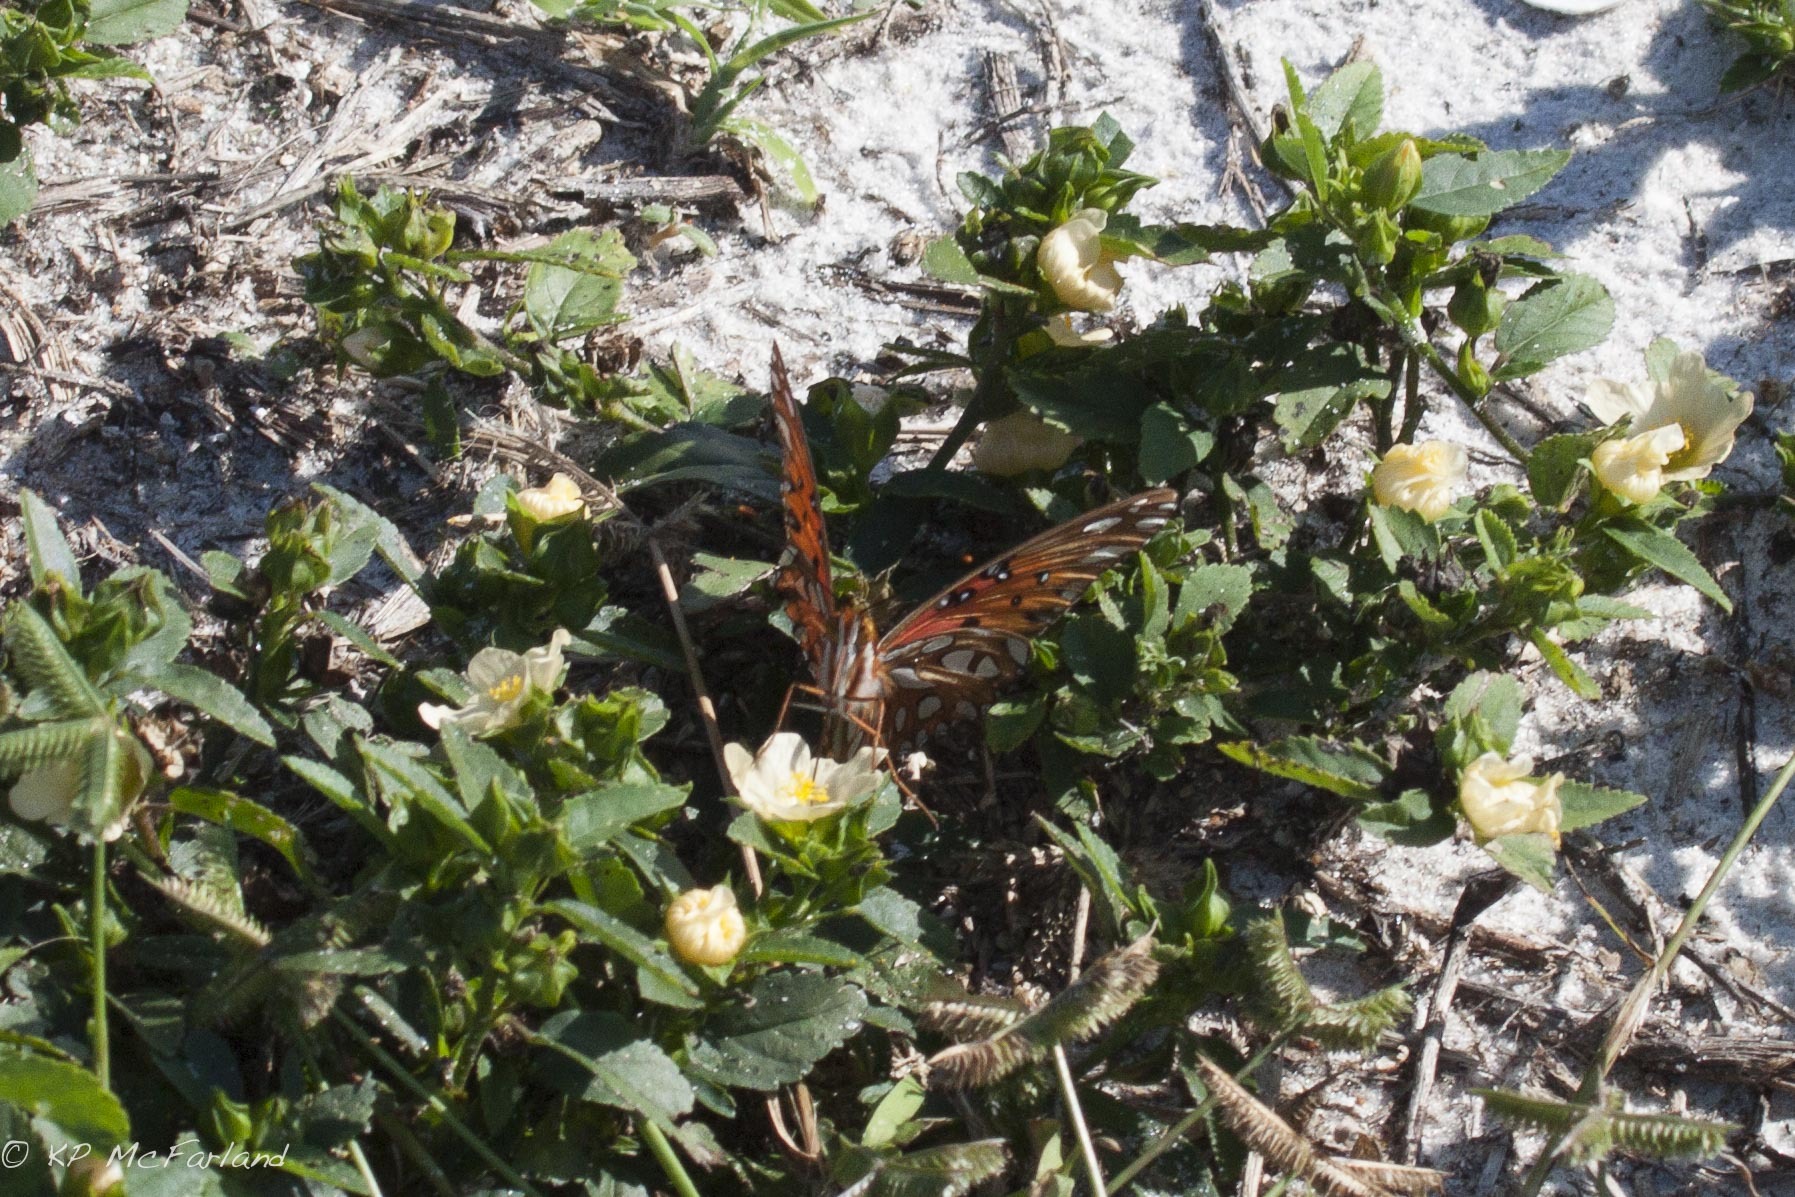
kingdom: Animalia
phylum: Arthropoda
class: Insecta
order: Lepidoptera
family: Nymphalidae
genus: Dione
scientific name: Dione vanillae
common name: Gulf fritillary
